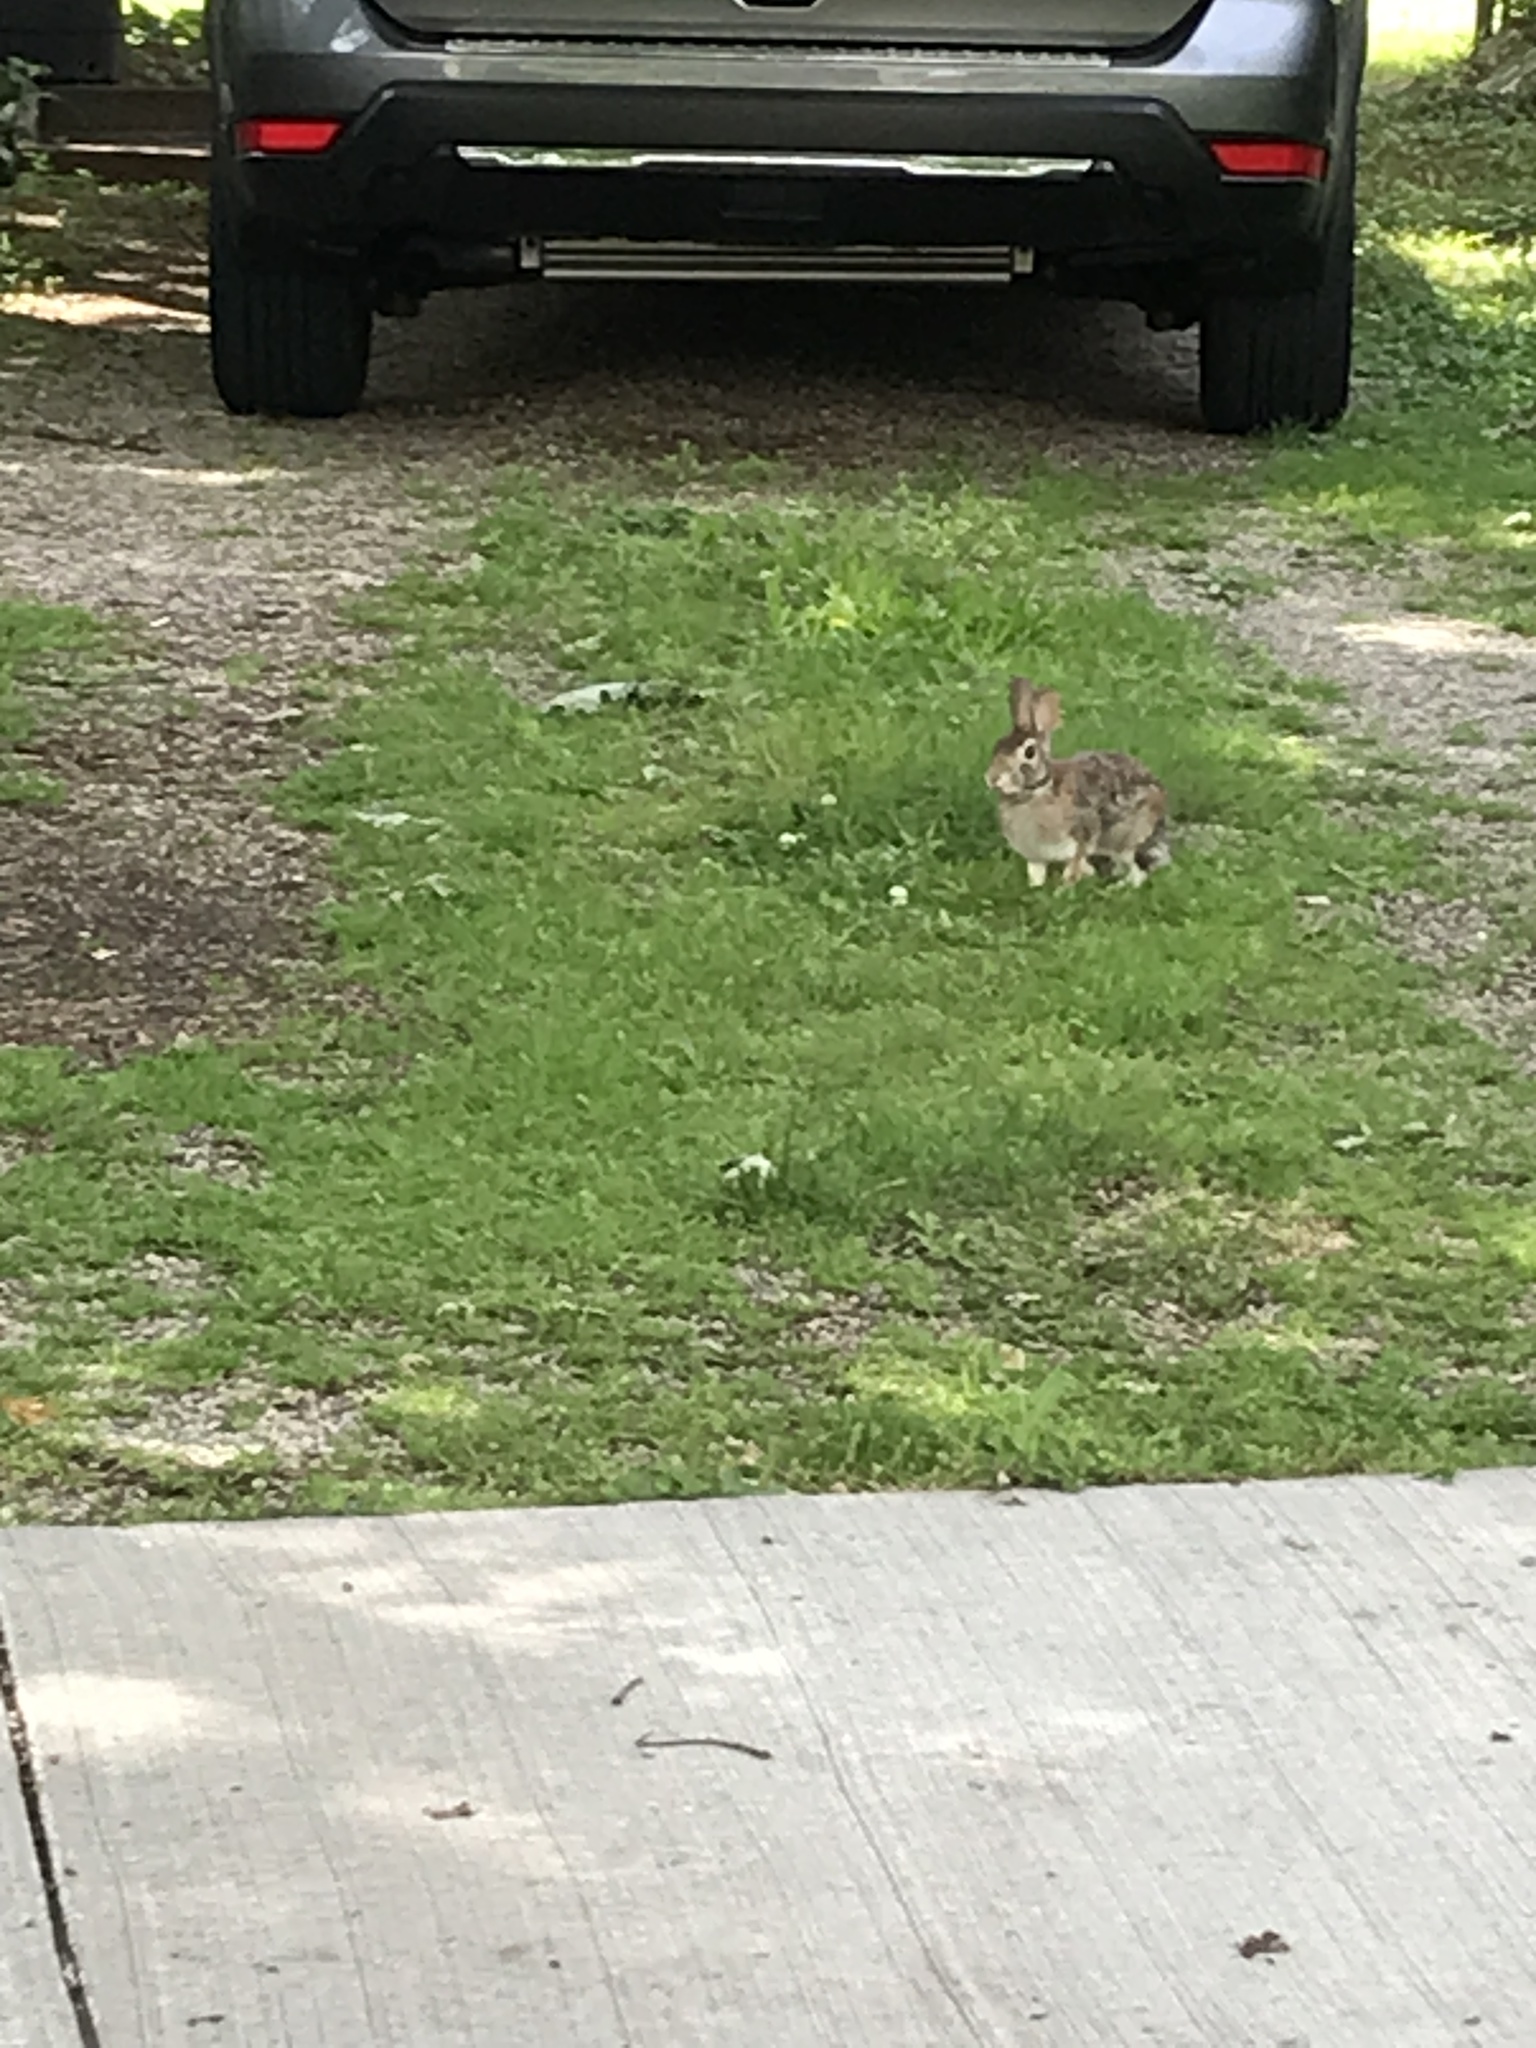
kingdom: Animalia
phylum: Chordata
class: Mammalia
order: Lagomorpha
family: Leporidae
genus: Sylvilagus
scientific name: Sylvilagus floridanus
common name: Eastern cottontail
